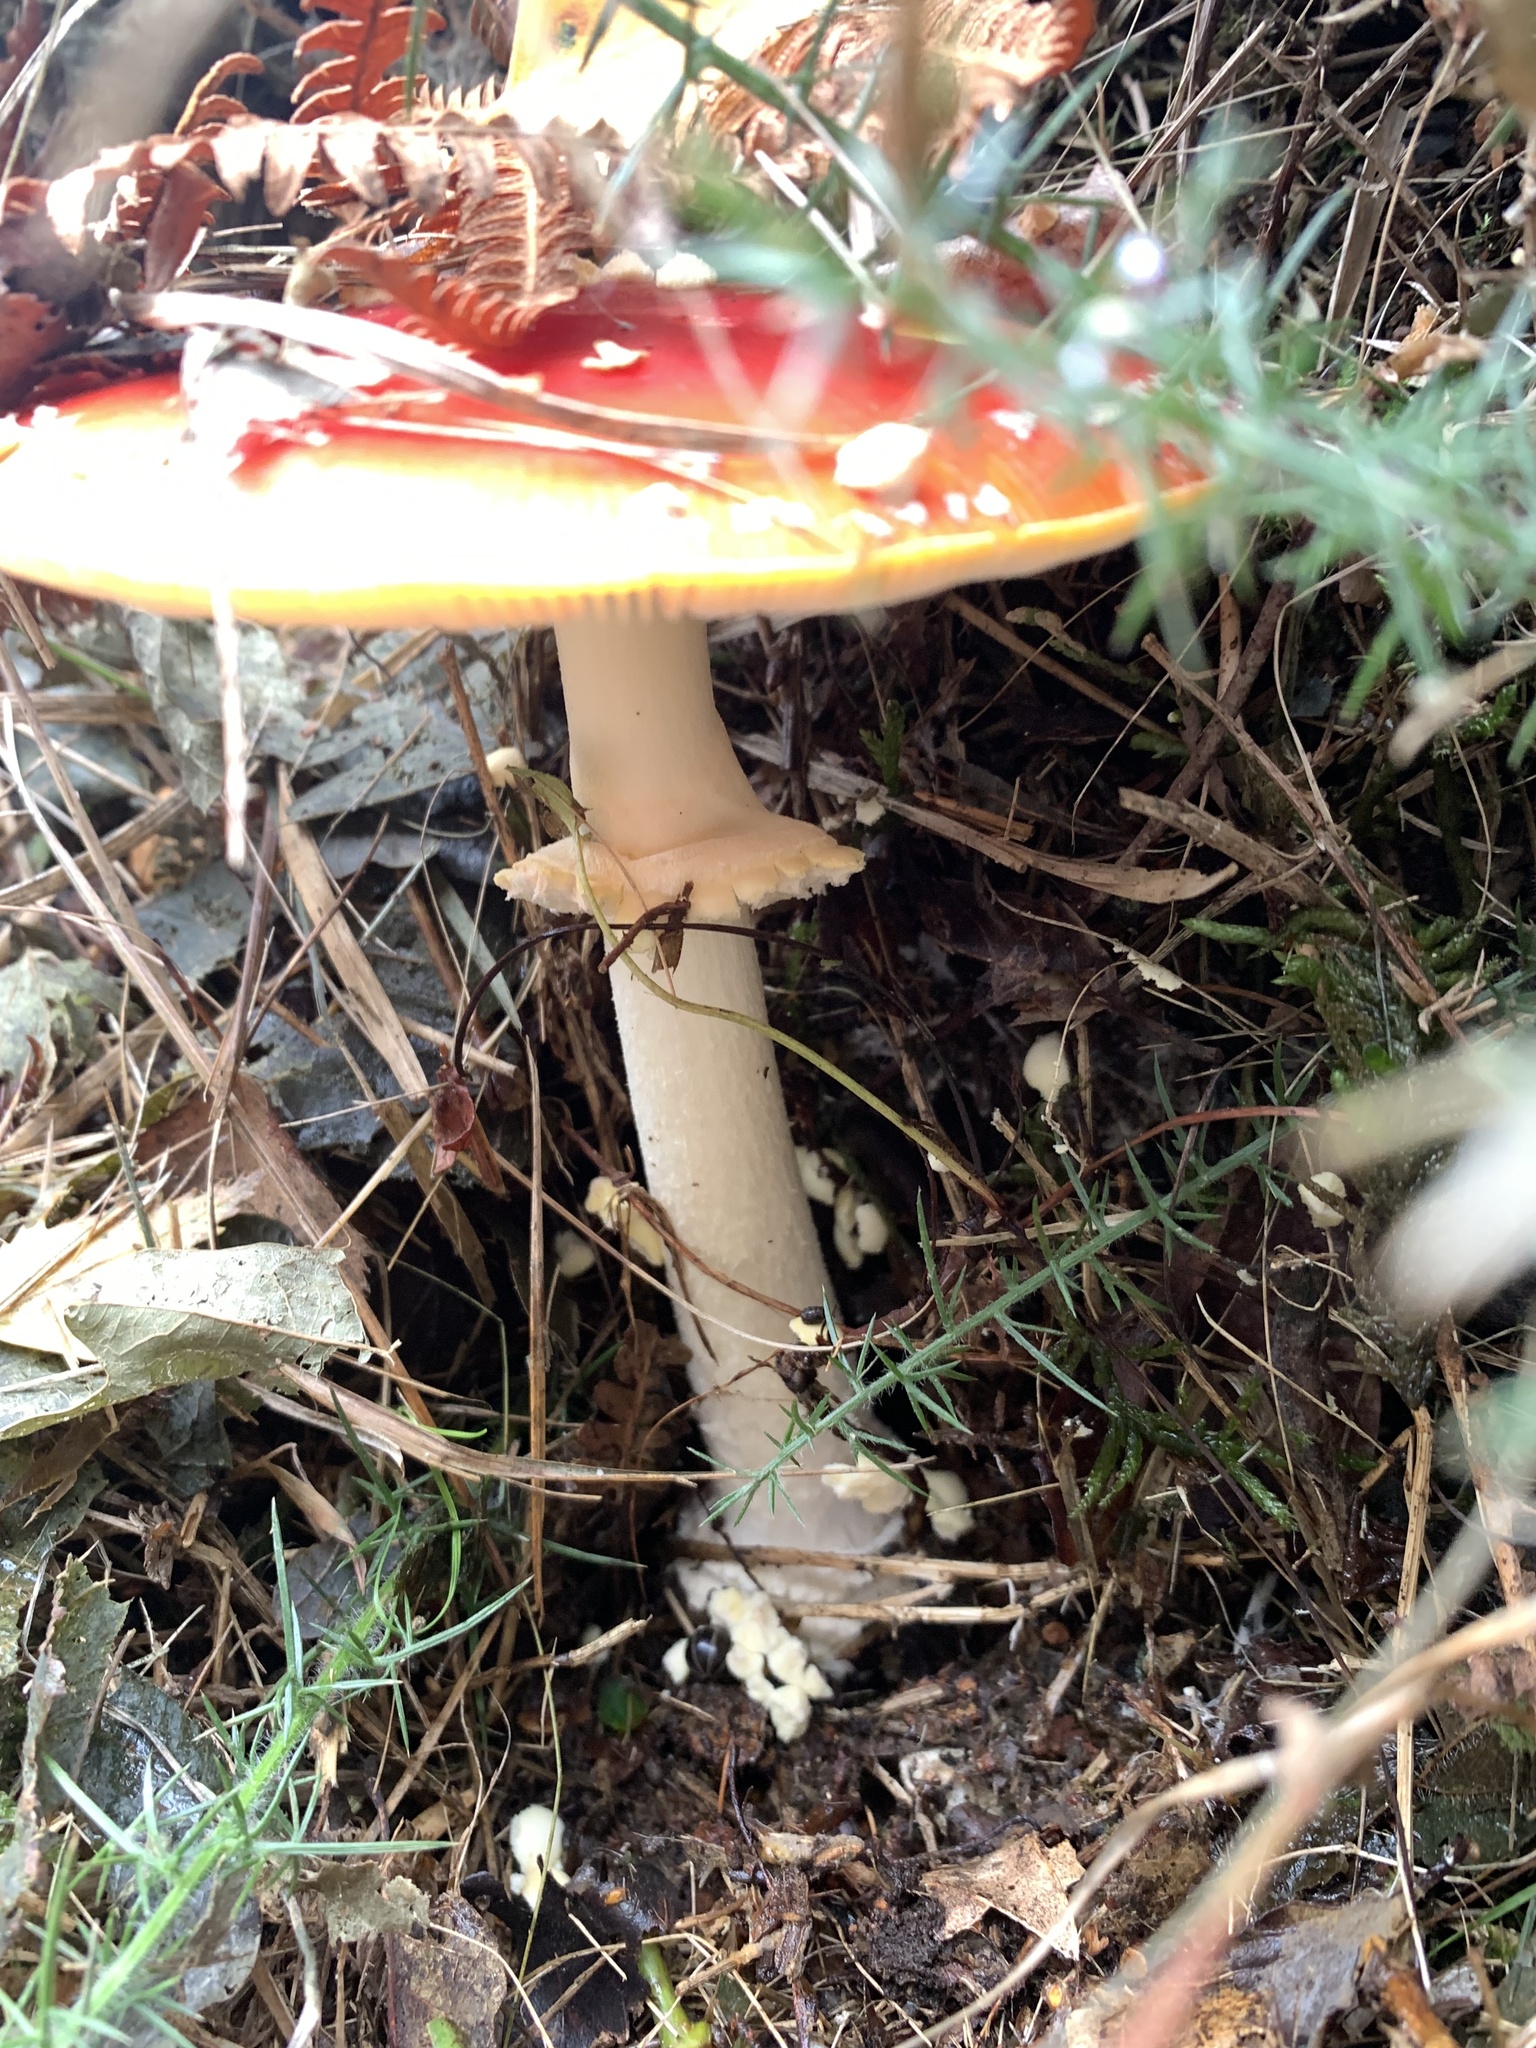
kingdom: Fungi
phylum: Basidiomycota
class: Agaricomycetes
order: Agaricales
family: Amanitaceae
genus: Amanita
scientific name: Amanita muscaria
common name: Fly agaric
